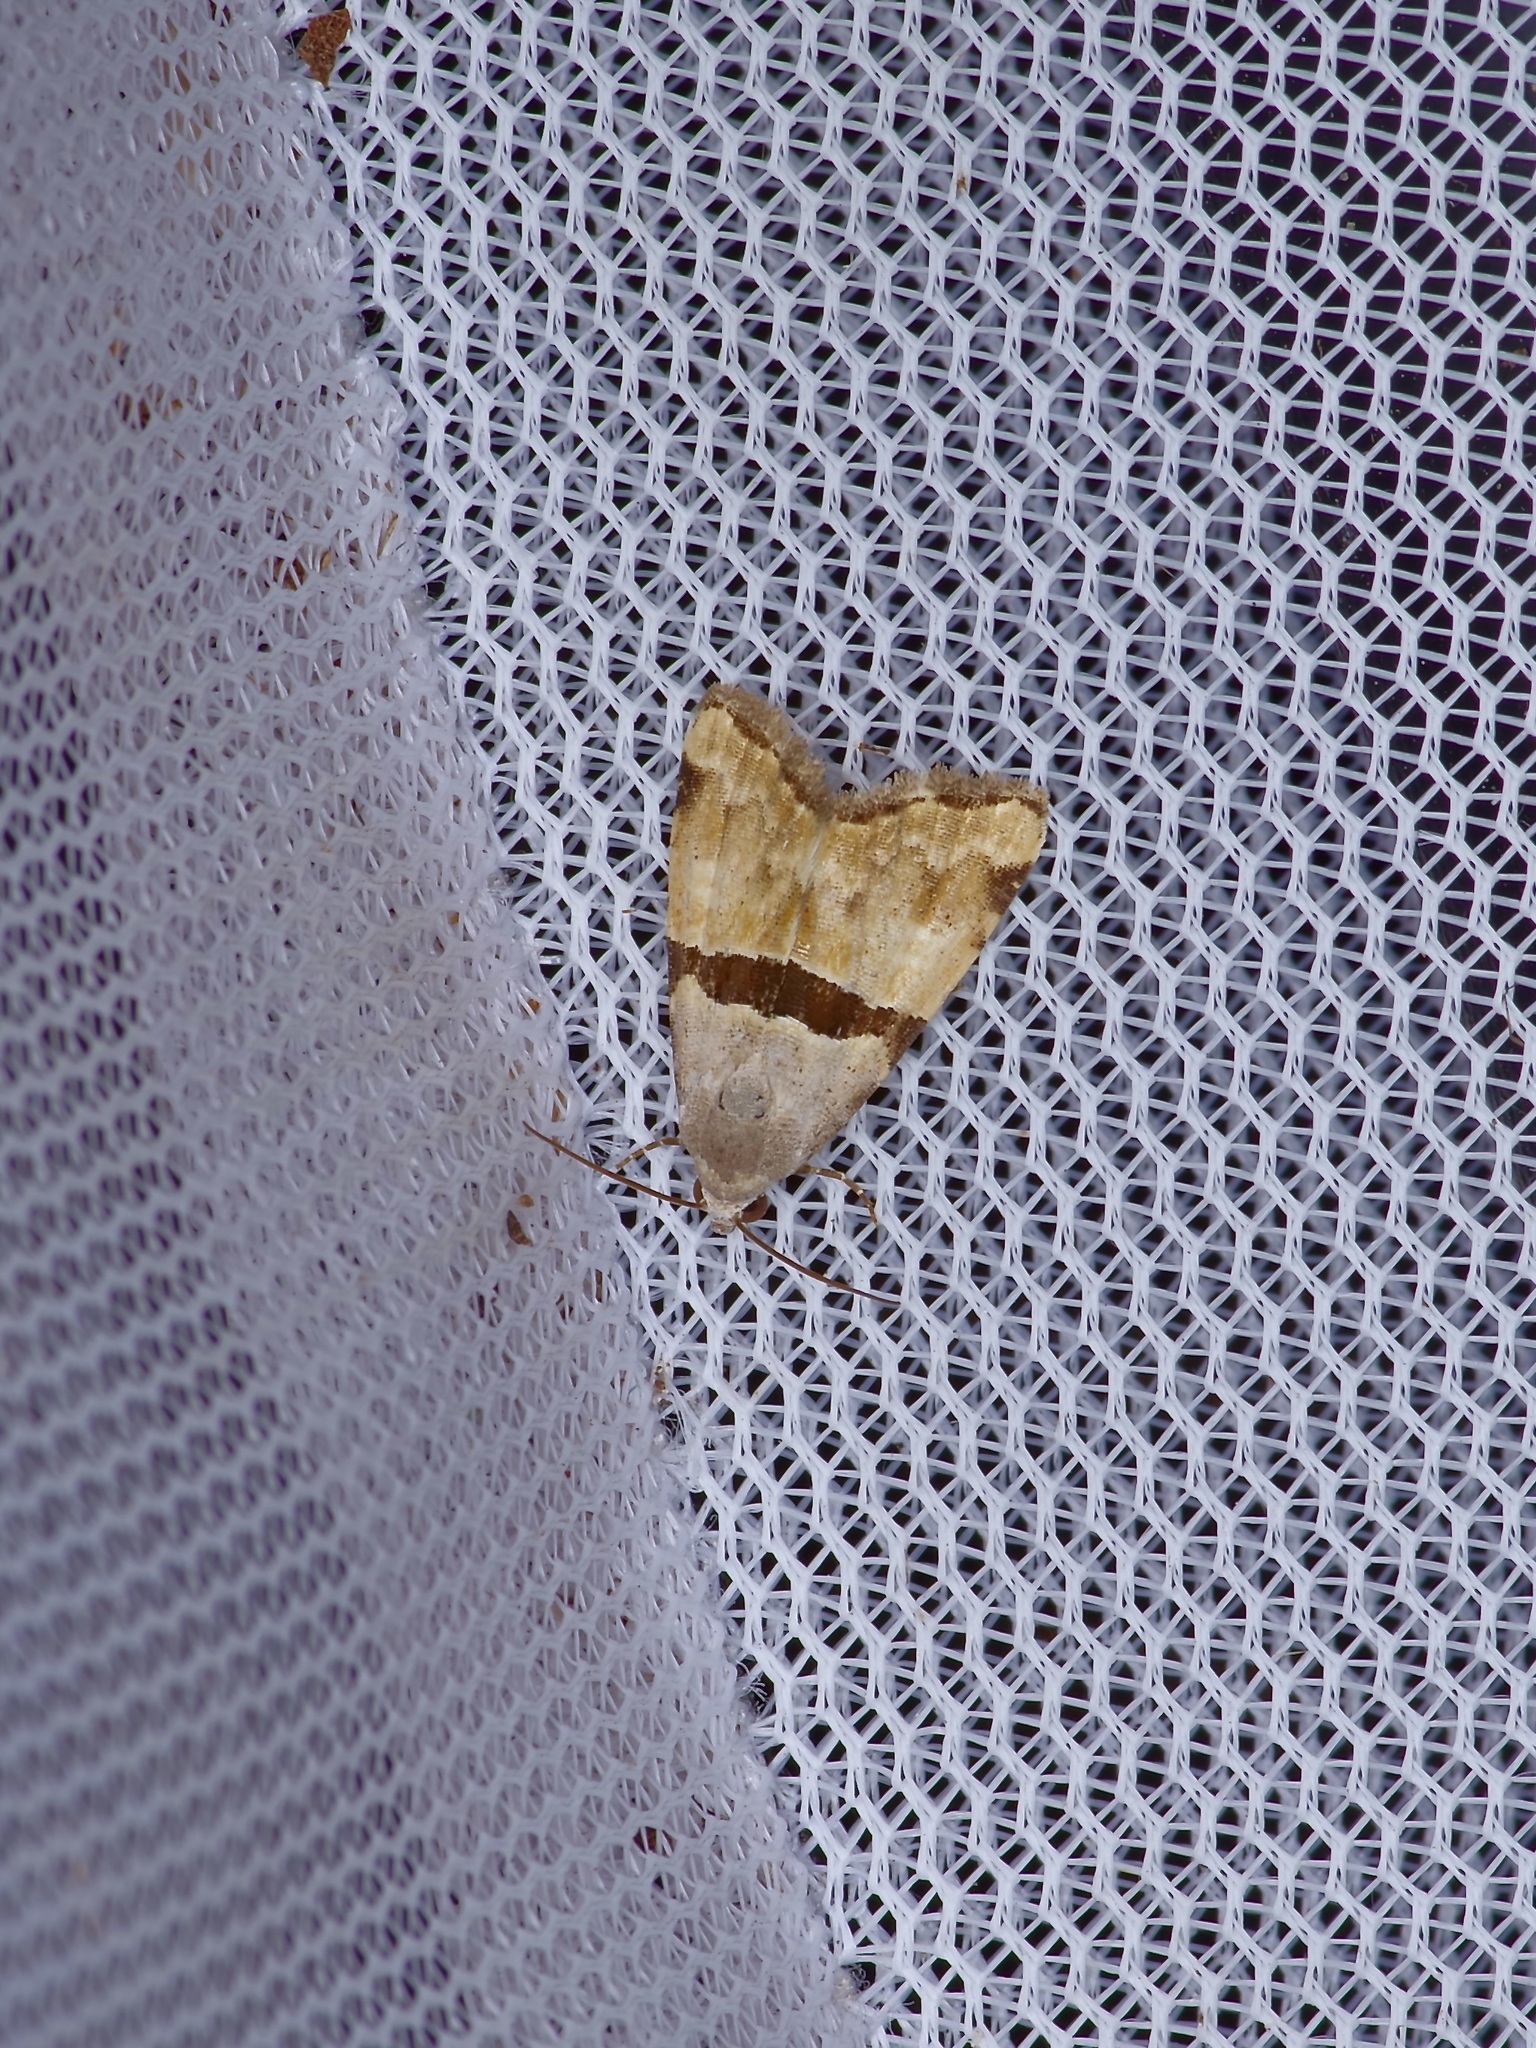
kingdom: Animalia
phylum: Arthropoda
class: Insecta
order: Lepidoptera
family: Noctuidae
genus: Cobubatha
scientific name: Cobubatha lixiva
